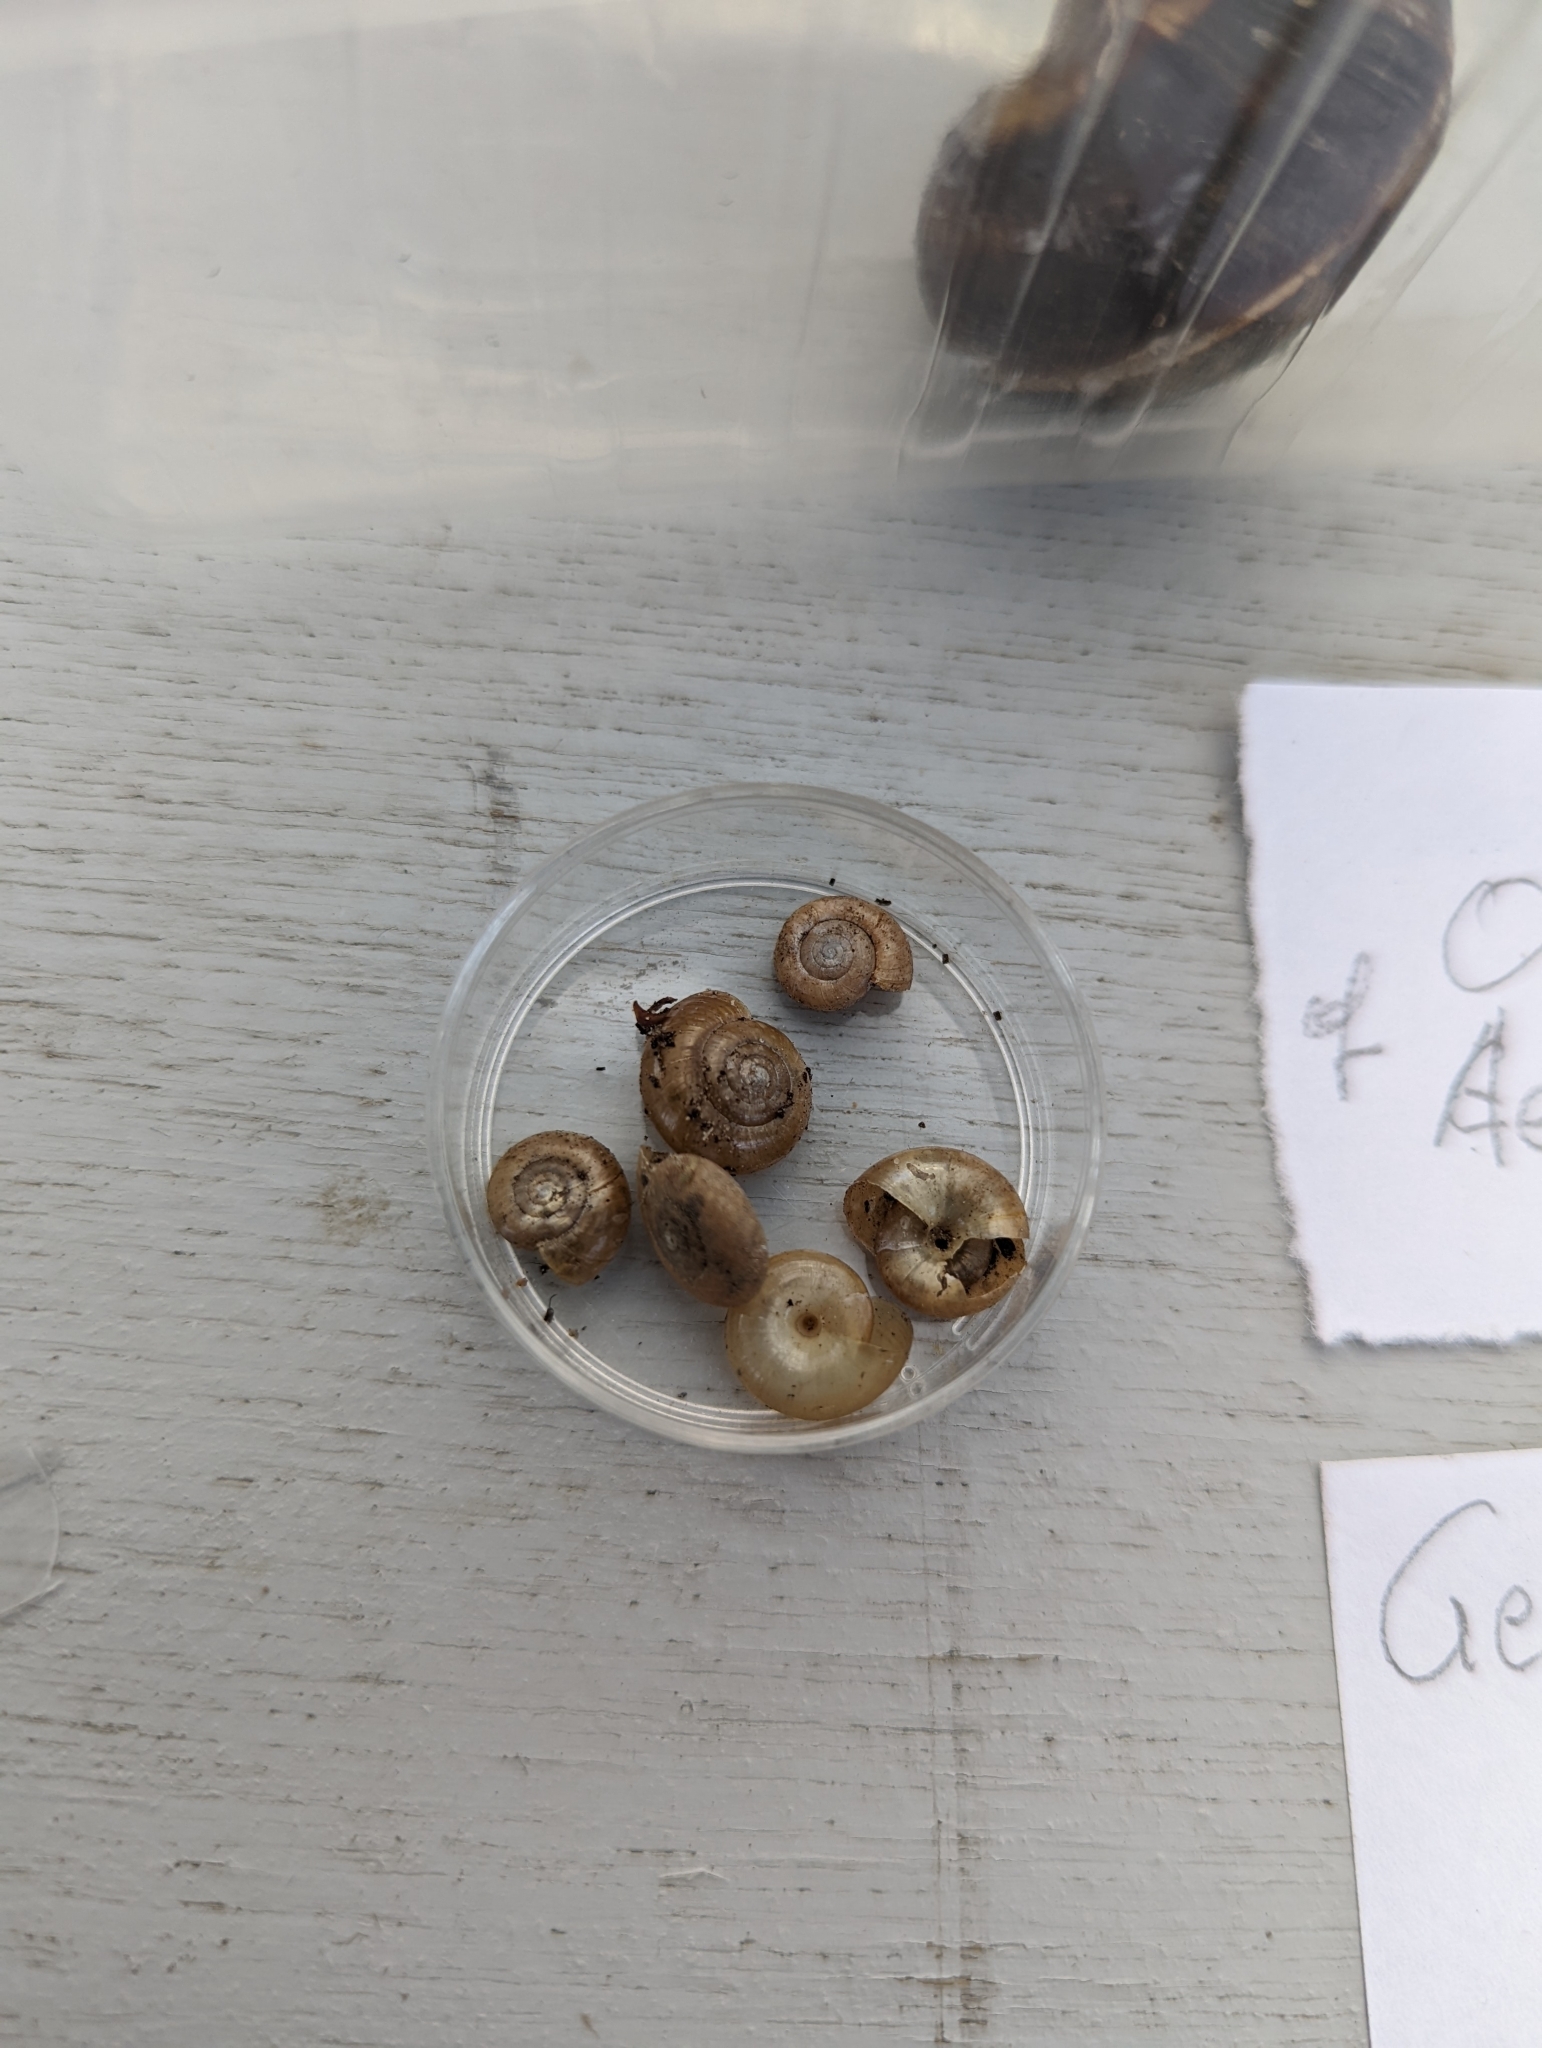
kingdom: Animalia
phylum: Mollusca
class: Gastropoda
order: Stylommatophora
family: Oxychilidae
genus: Oxychilus
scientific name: Oxychilus draparnaudi
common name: Draparnaud's glass snail
